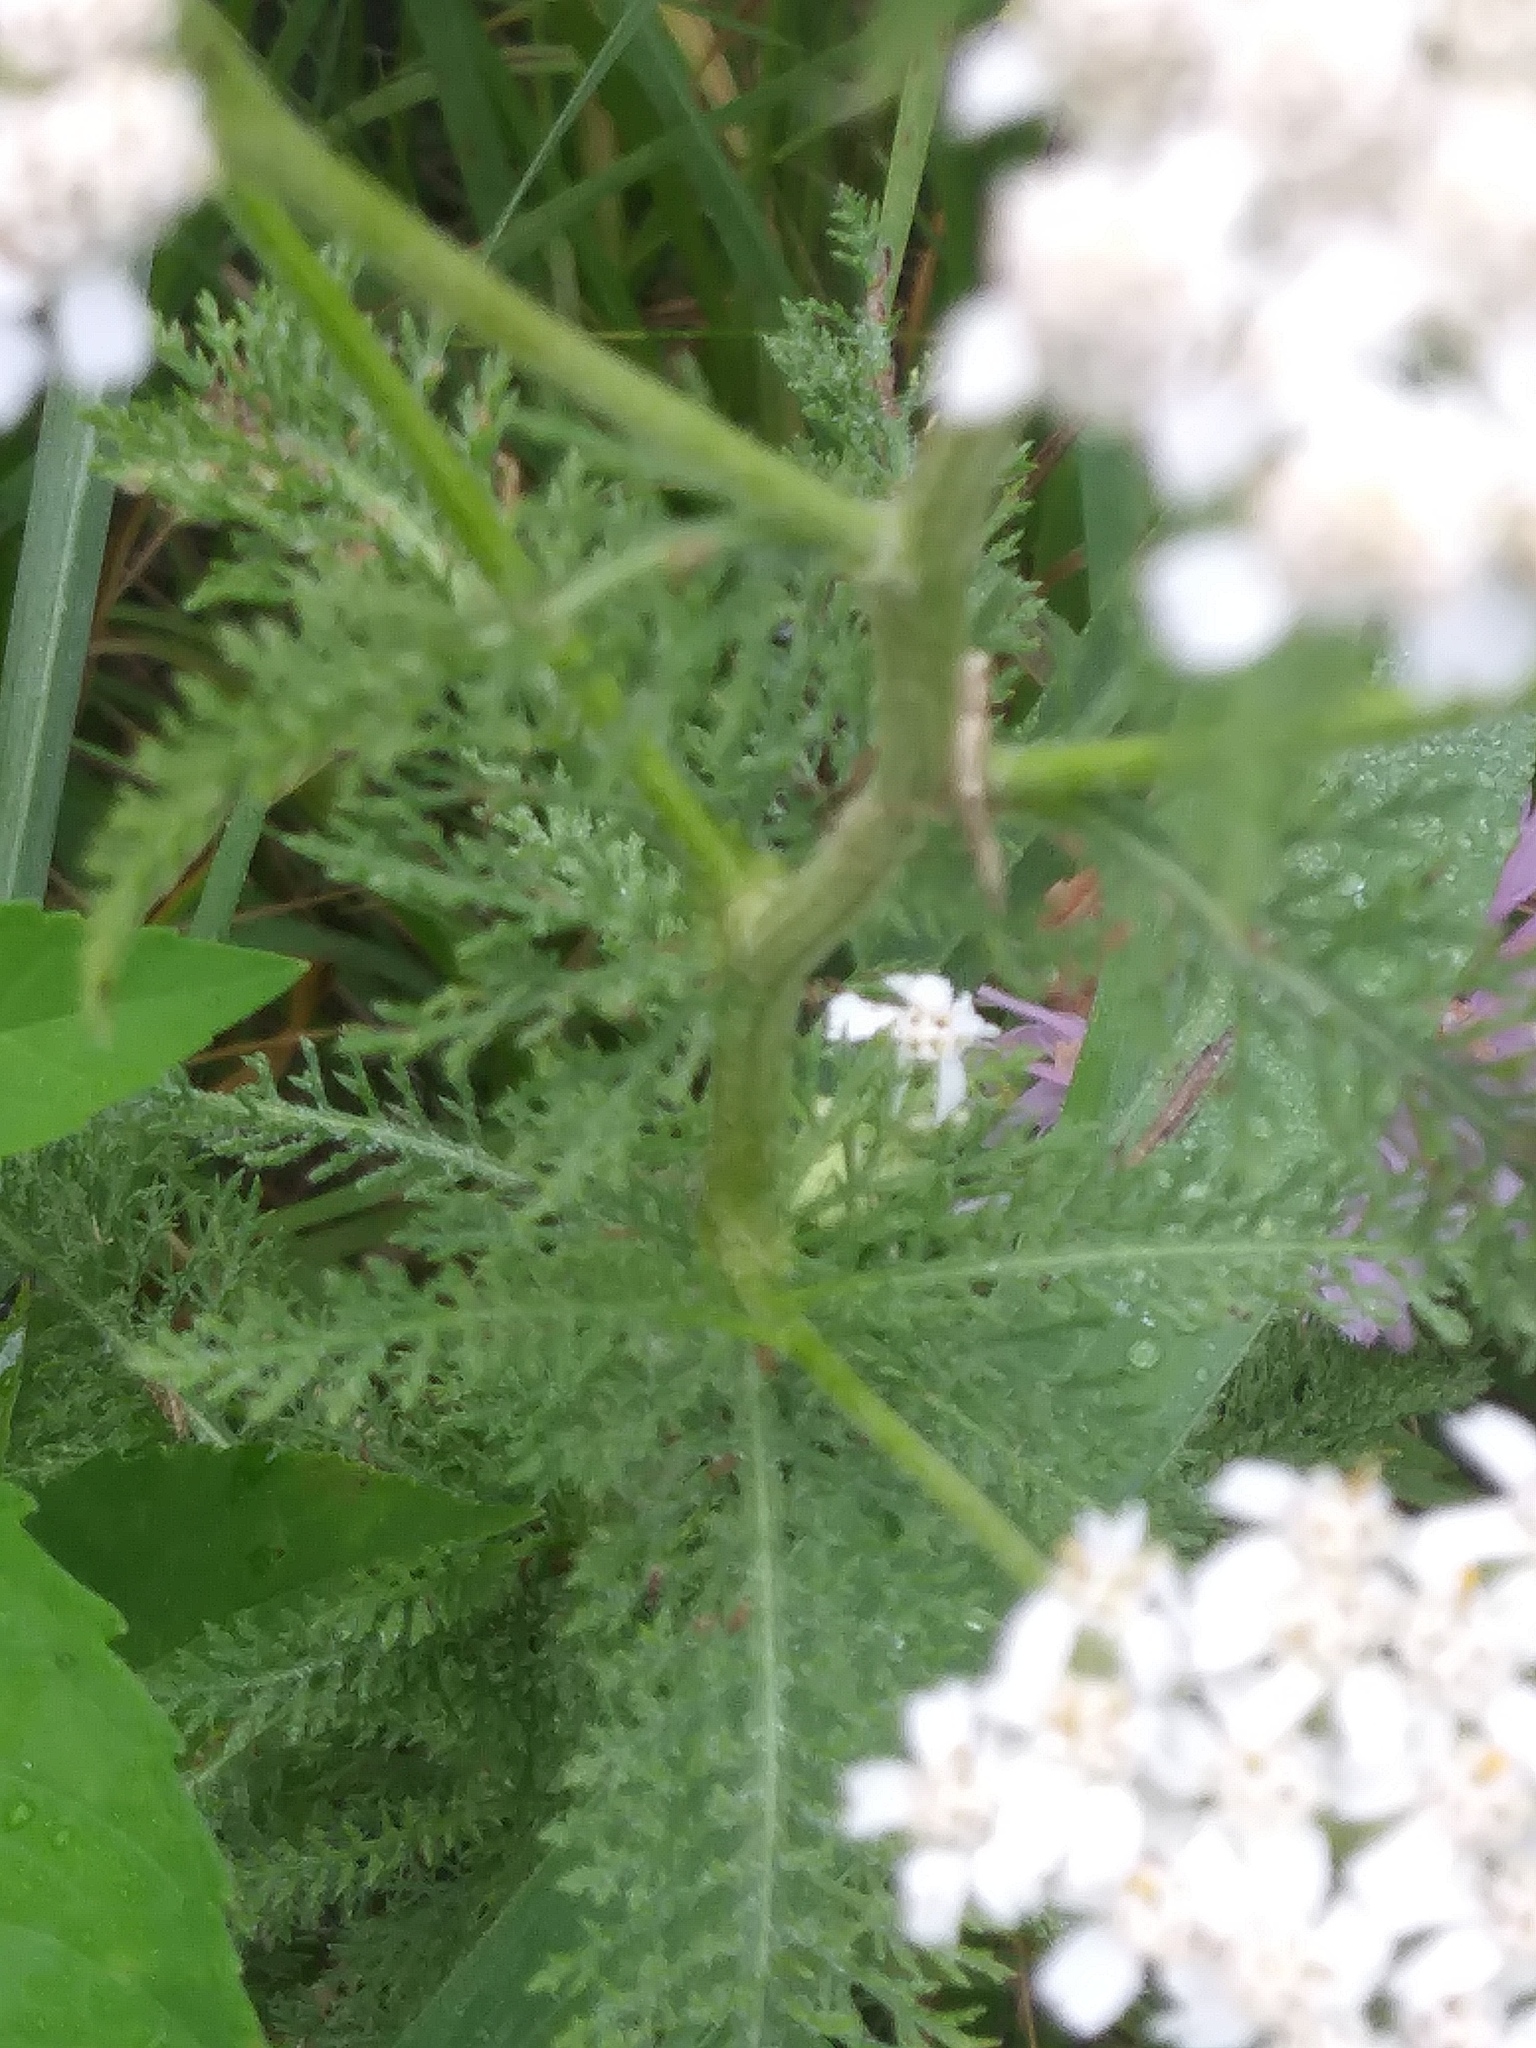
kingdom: Plantae
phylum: Tracheophyta
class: Magnoliopsida
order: Asterales
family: Asteraceae
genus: Achillea
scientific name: Achillea millefolium
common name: Yarrow
